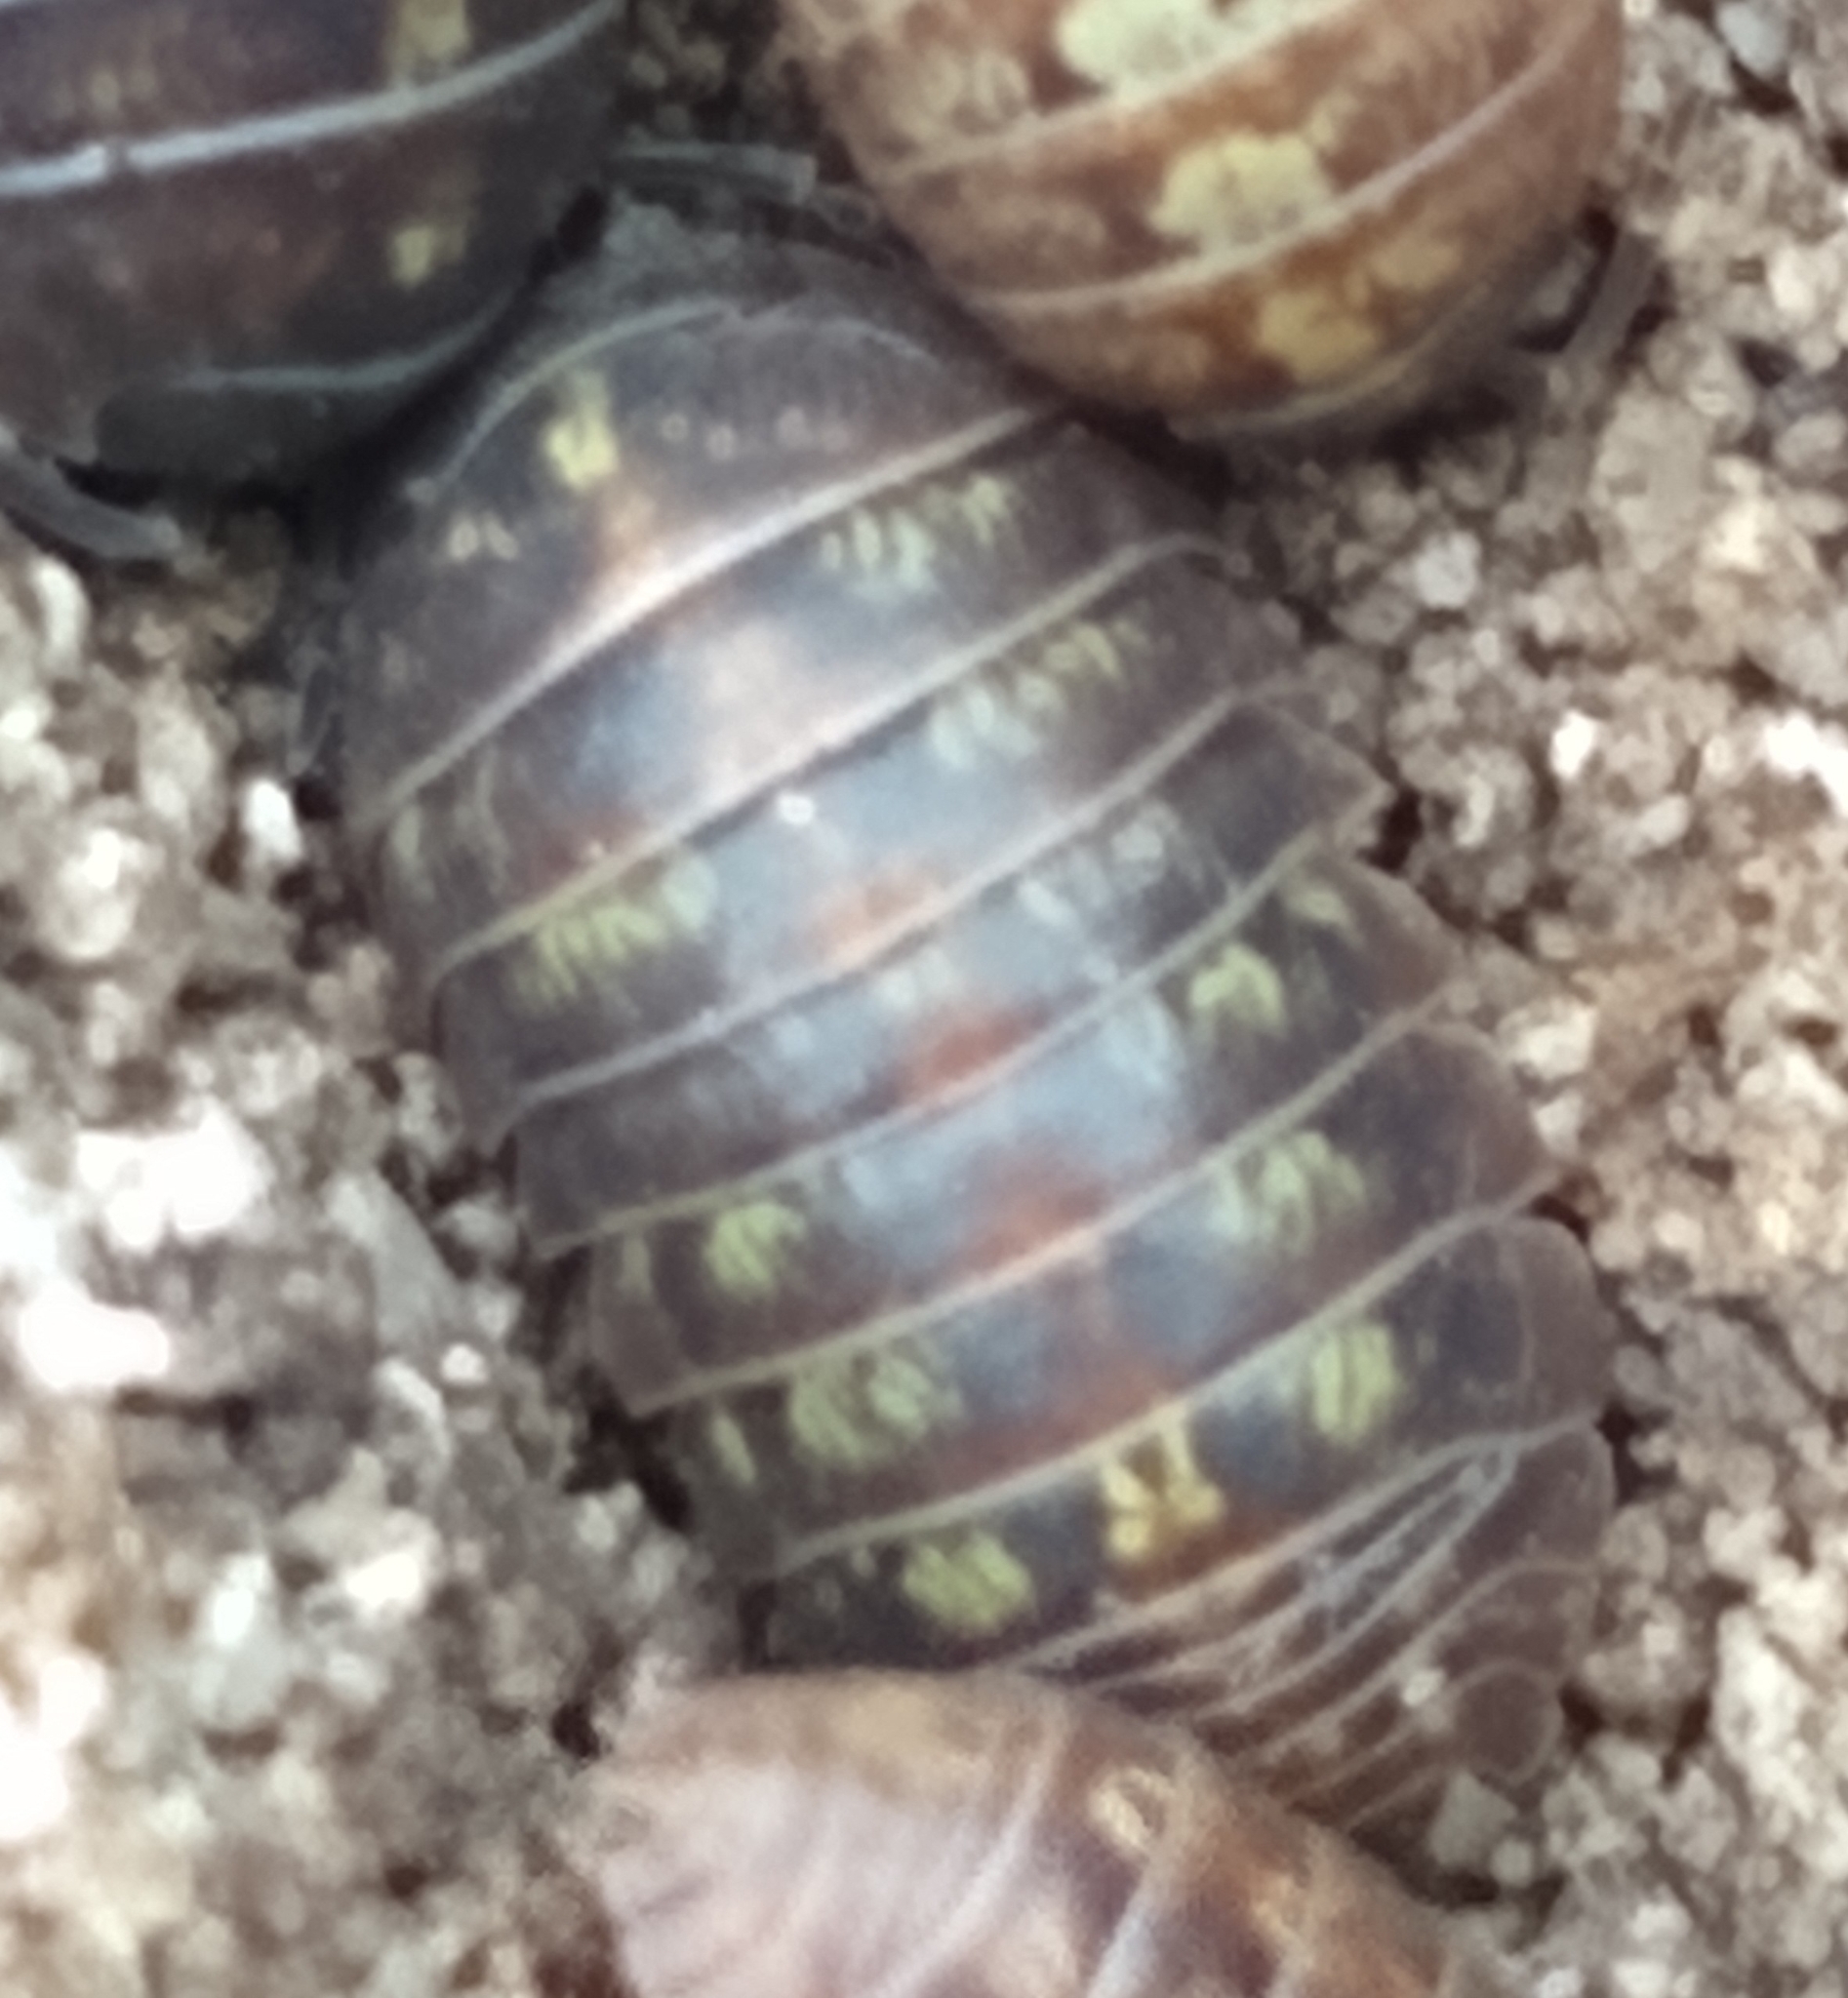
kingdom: Animalia
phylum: Arthropoda
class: Malacostraca
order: Isopoda
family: Armadillidiidae
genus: Armadillidium
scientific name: Armadillidium vulgare
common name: Common pill woodlouse
